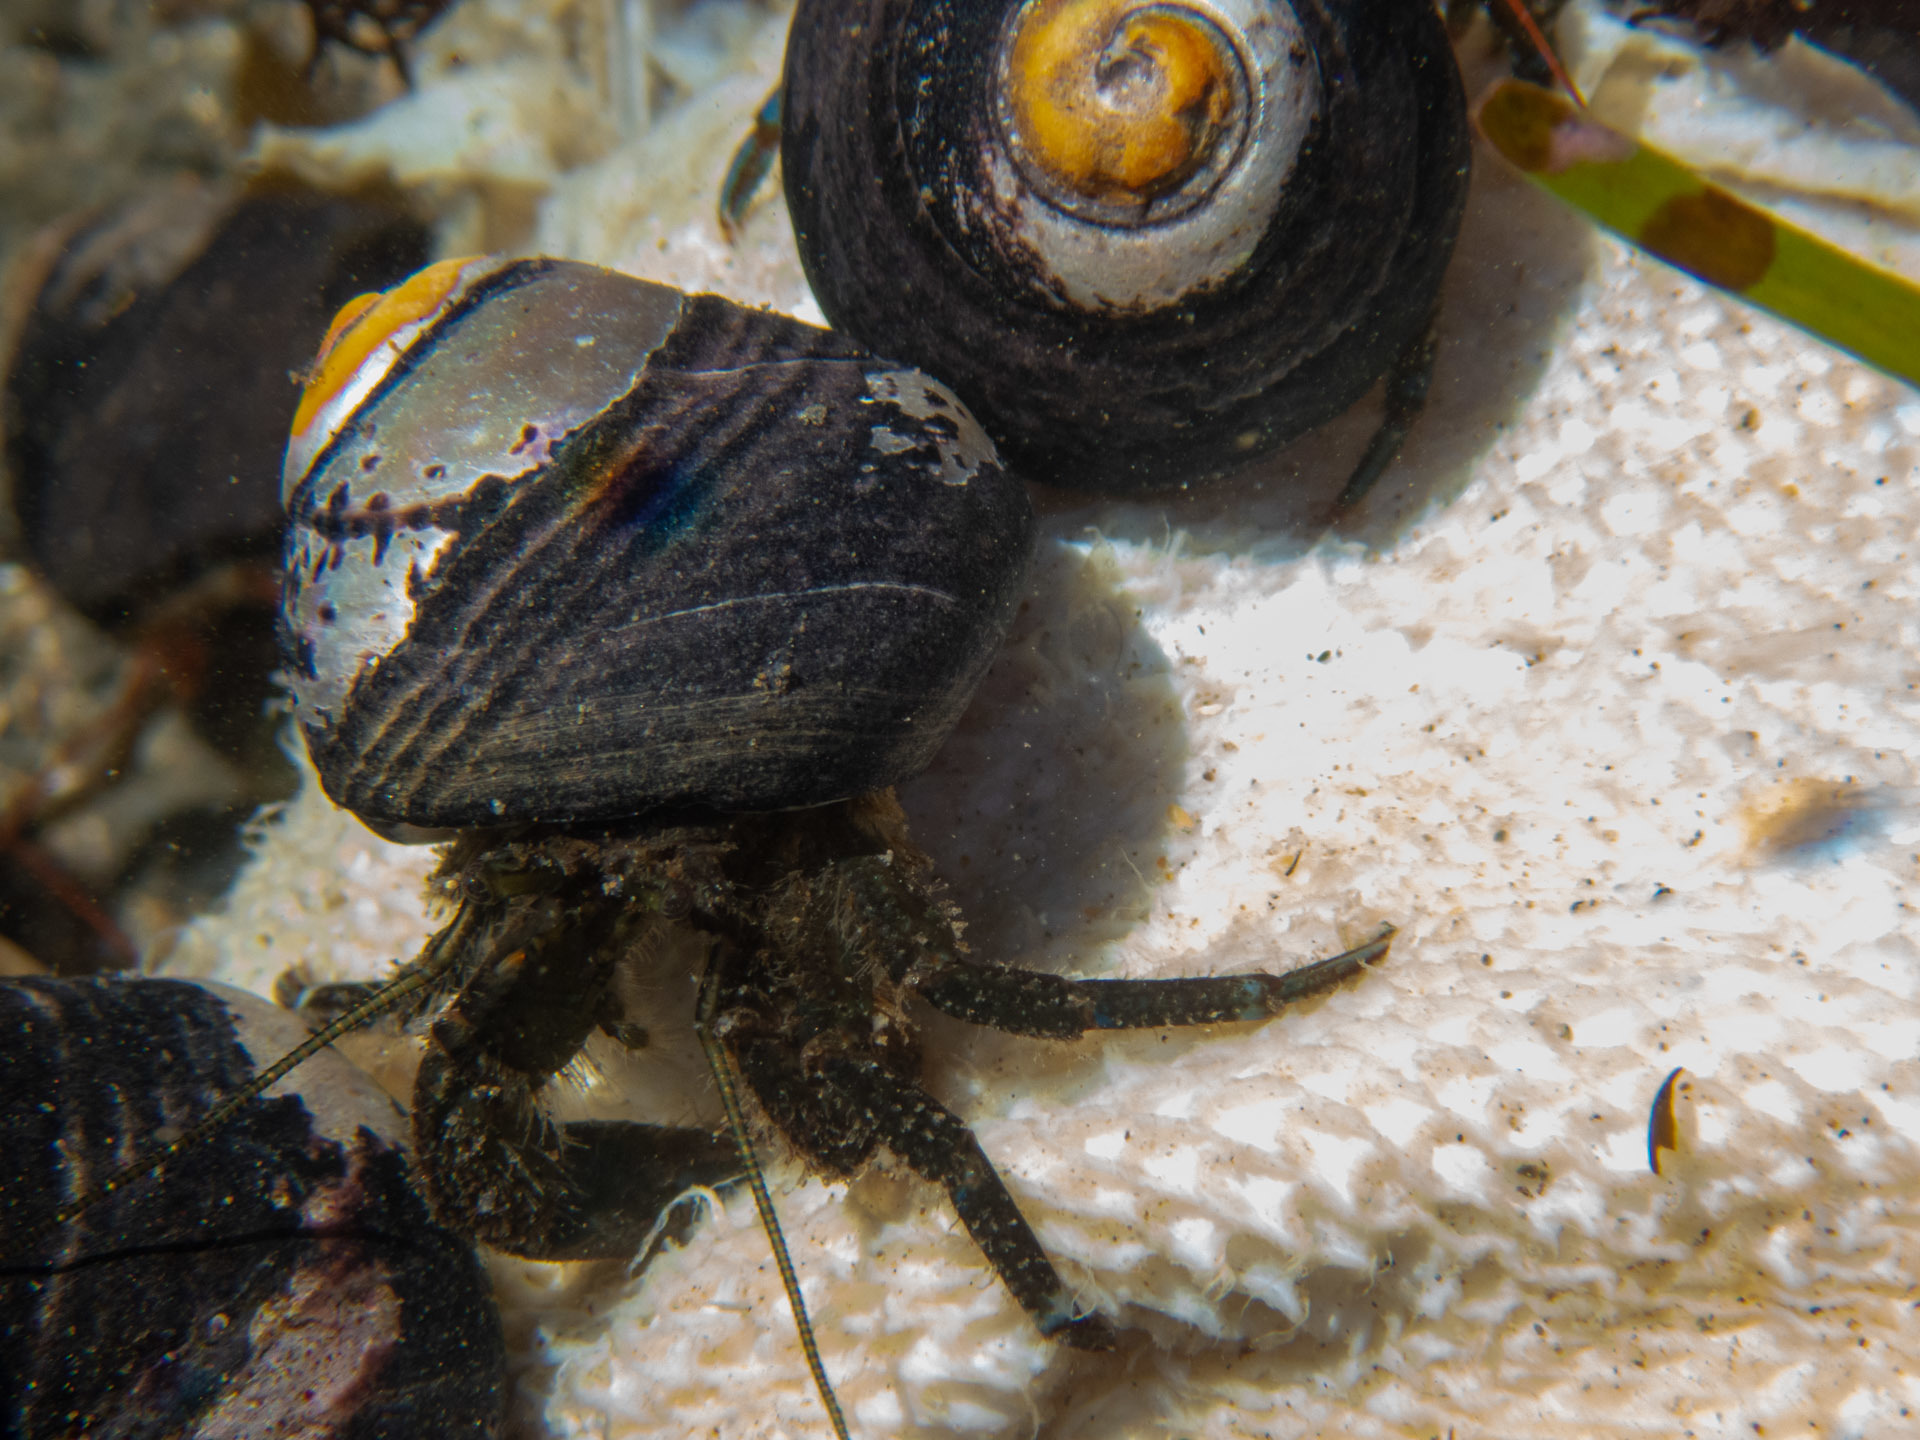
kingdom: Animalia
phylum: Arthropoda
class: Malacostraca
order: Decapoda
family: Paguridae
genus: Pagurus
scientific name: Pagurus hirsutiusculus
